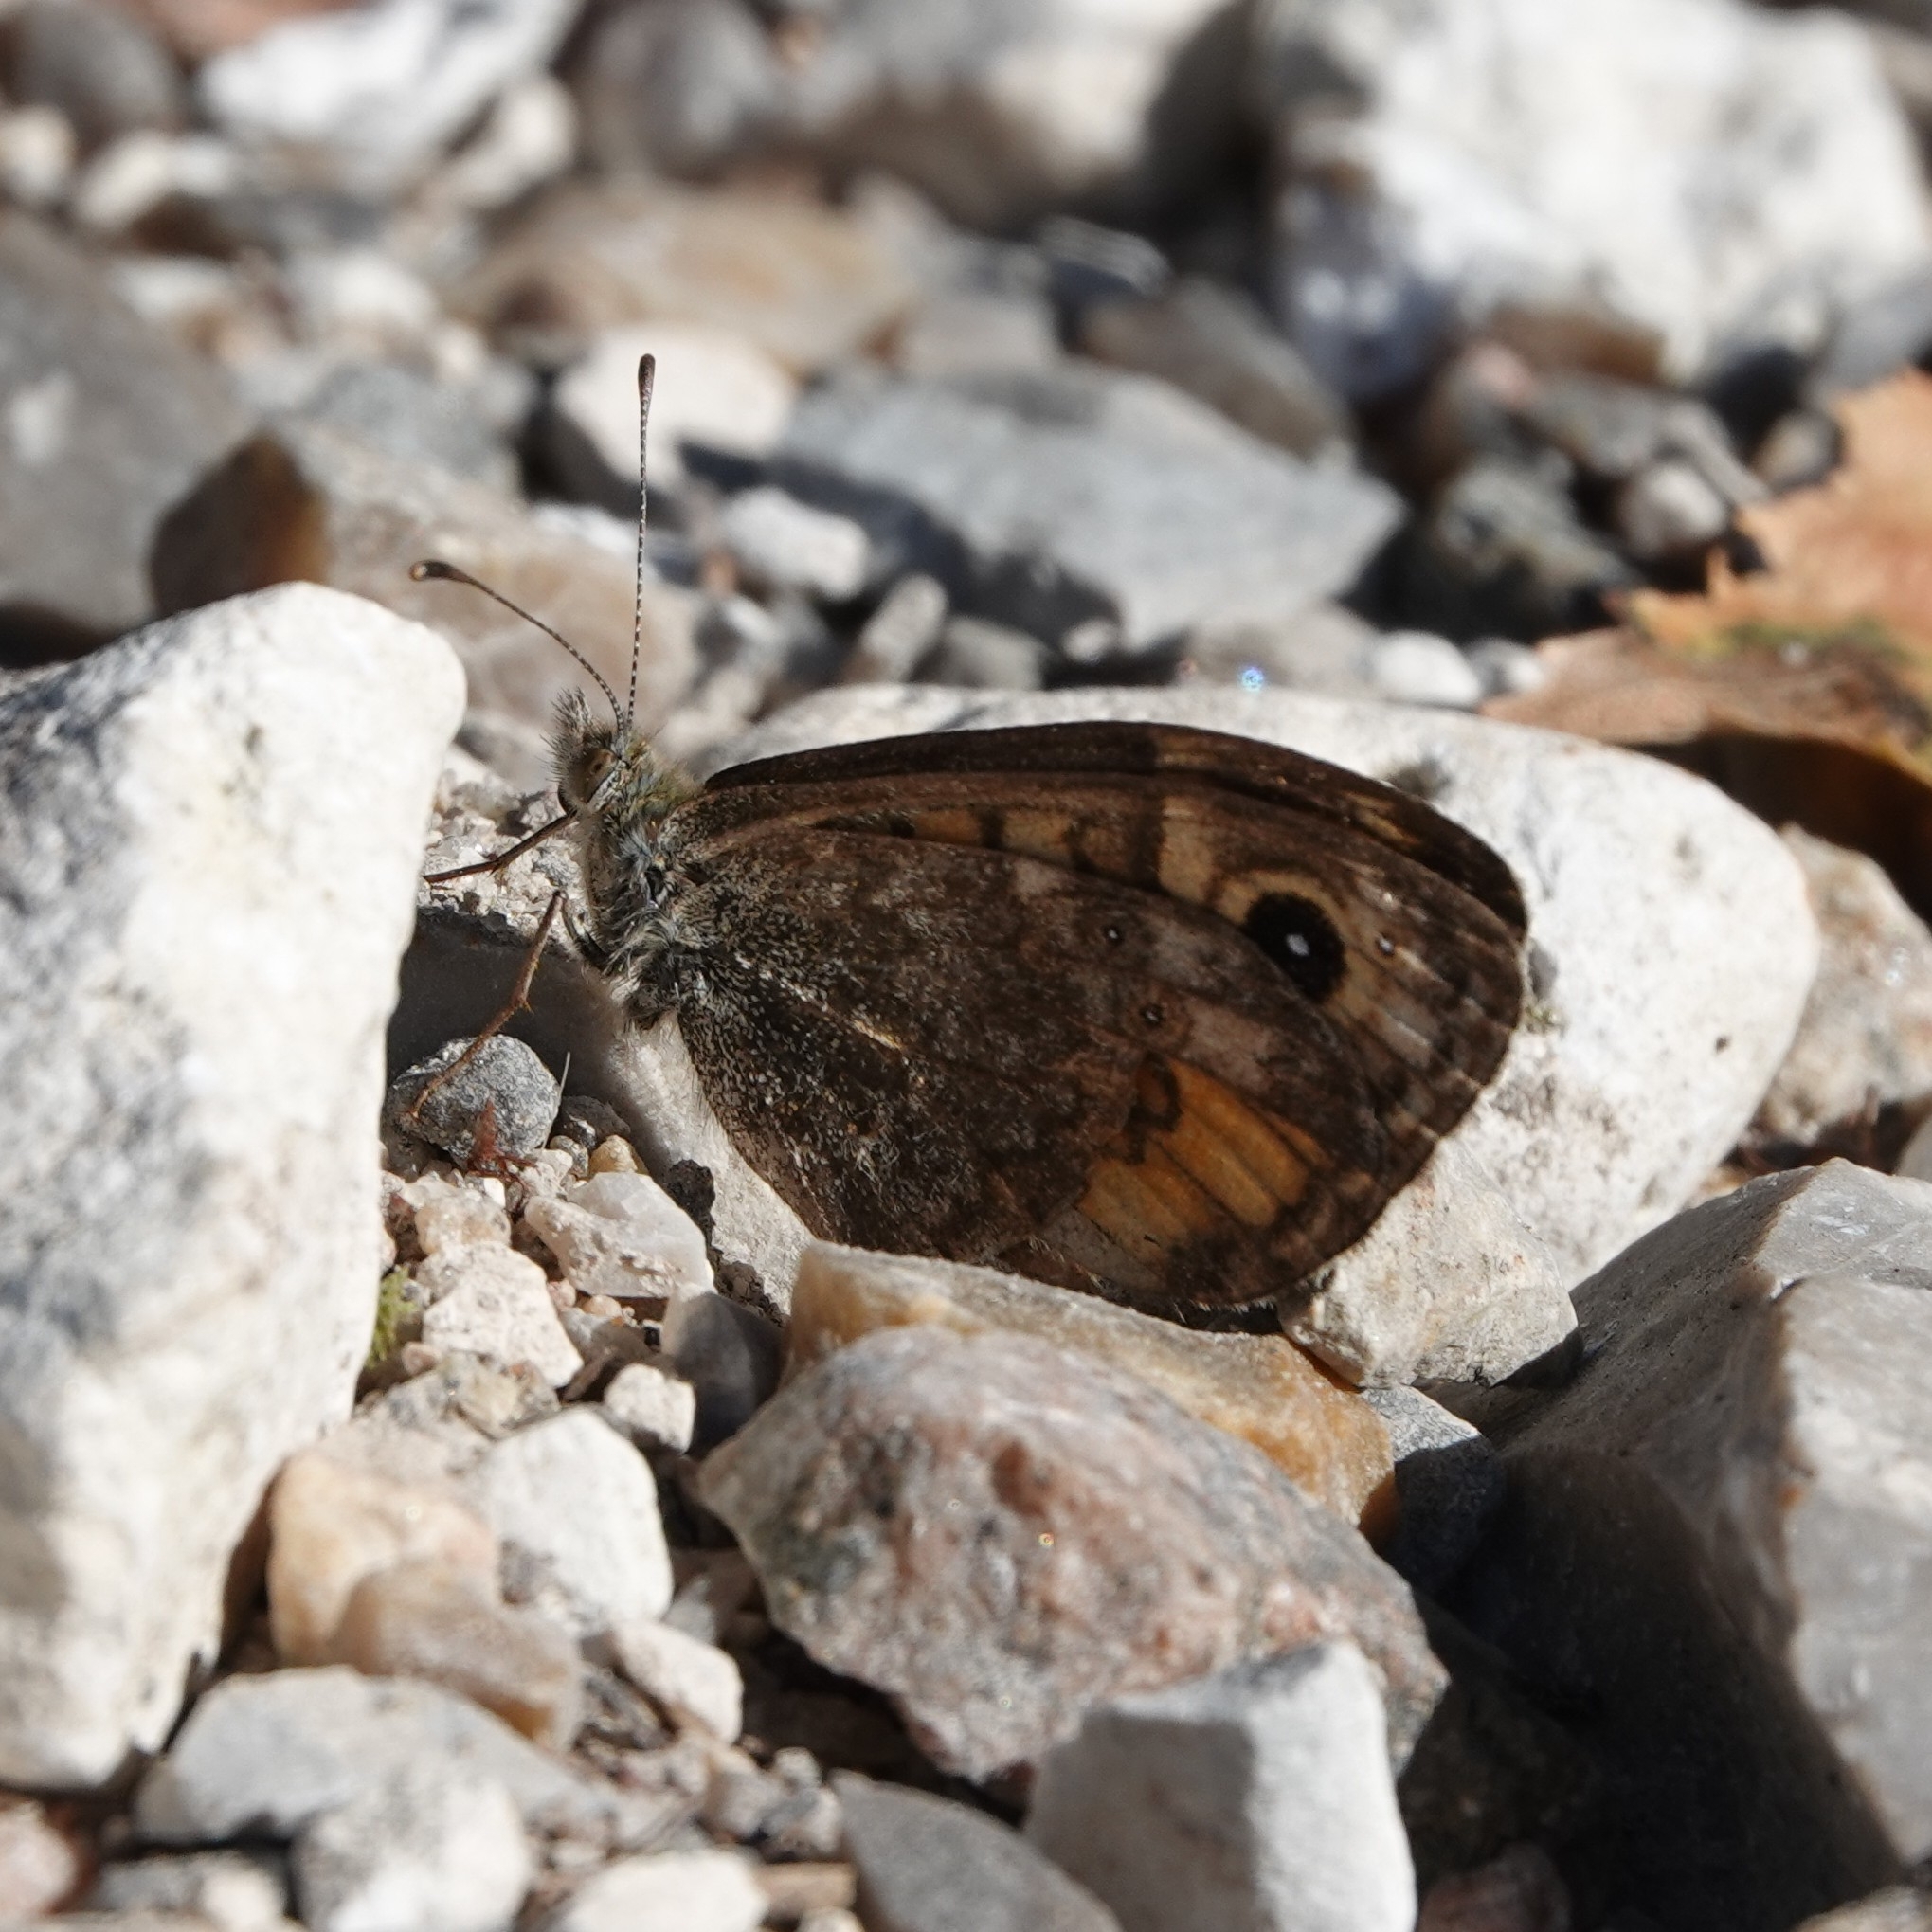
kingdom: Animalia
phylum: Arthropoda
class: Insecta
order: Lepidoptera
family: Nymphalidae
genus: Pararge
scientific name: Pararge Lasiommata megera
